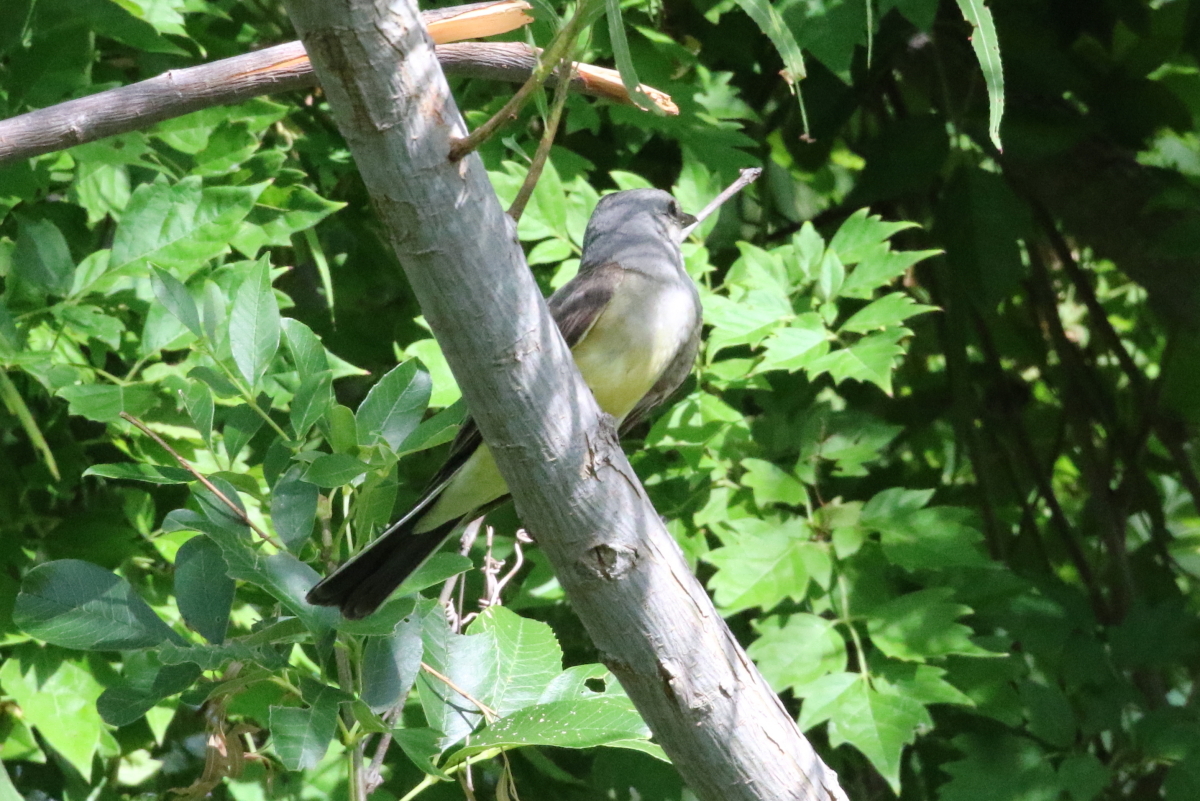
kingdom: Animalia
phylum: Chordata
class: Aves
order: Passeriformes
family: Tyrannidae
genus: Tyrannus
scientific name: Tyrannus verticalis
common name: Western kingbird
